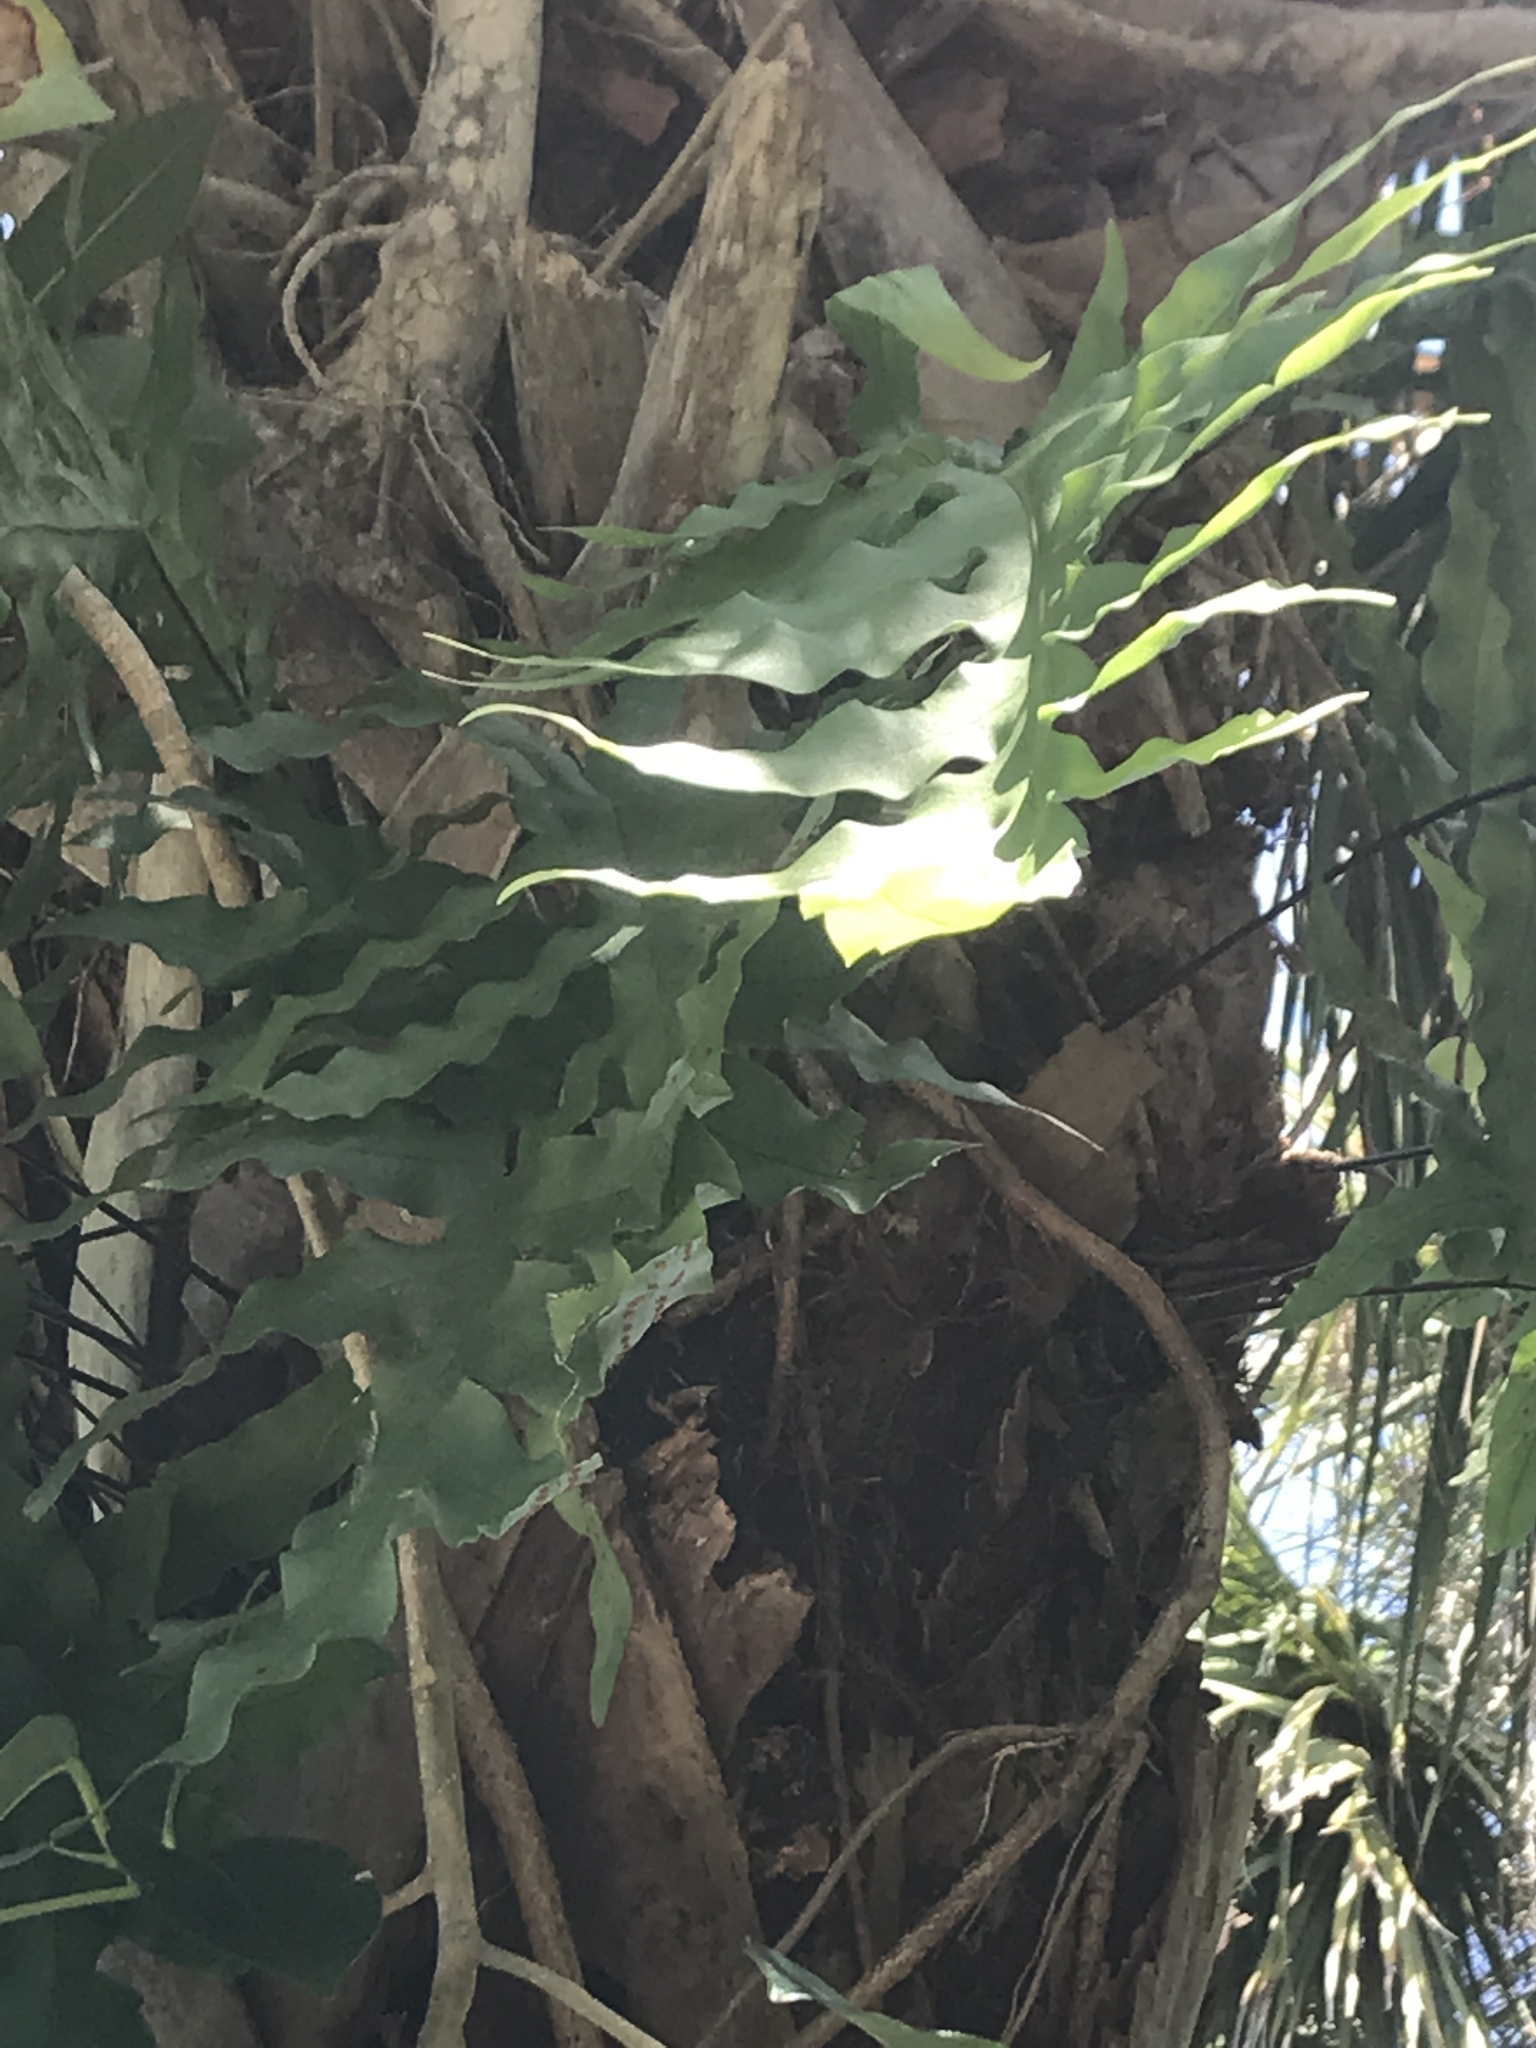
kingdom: Plantae
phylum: Tracheophyta
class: Polypodiopsida
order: Polypodiales
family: Polypodiaceae
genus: Phlebodium
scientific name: Phlebodium aureum
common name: Gold-foot fern
